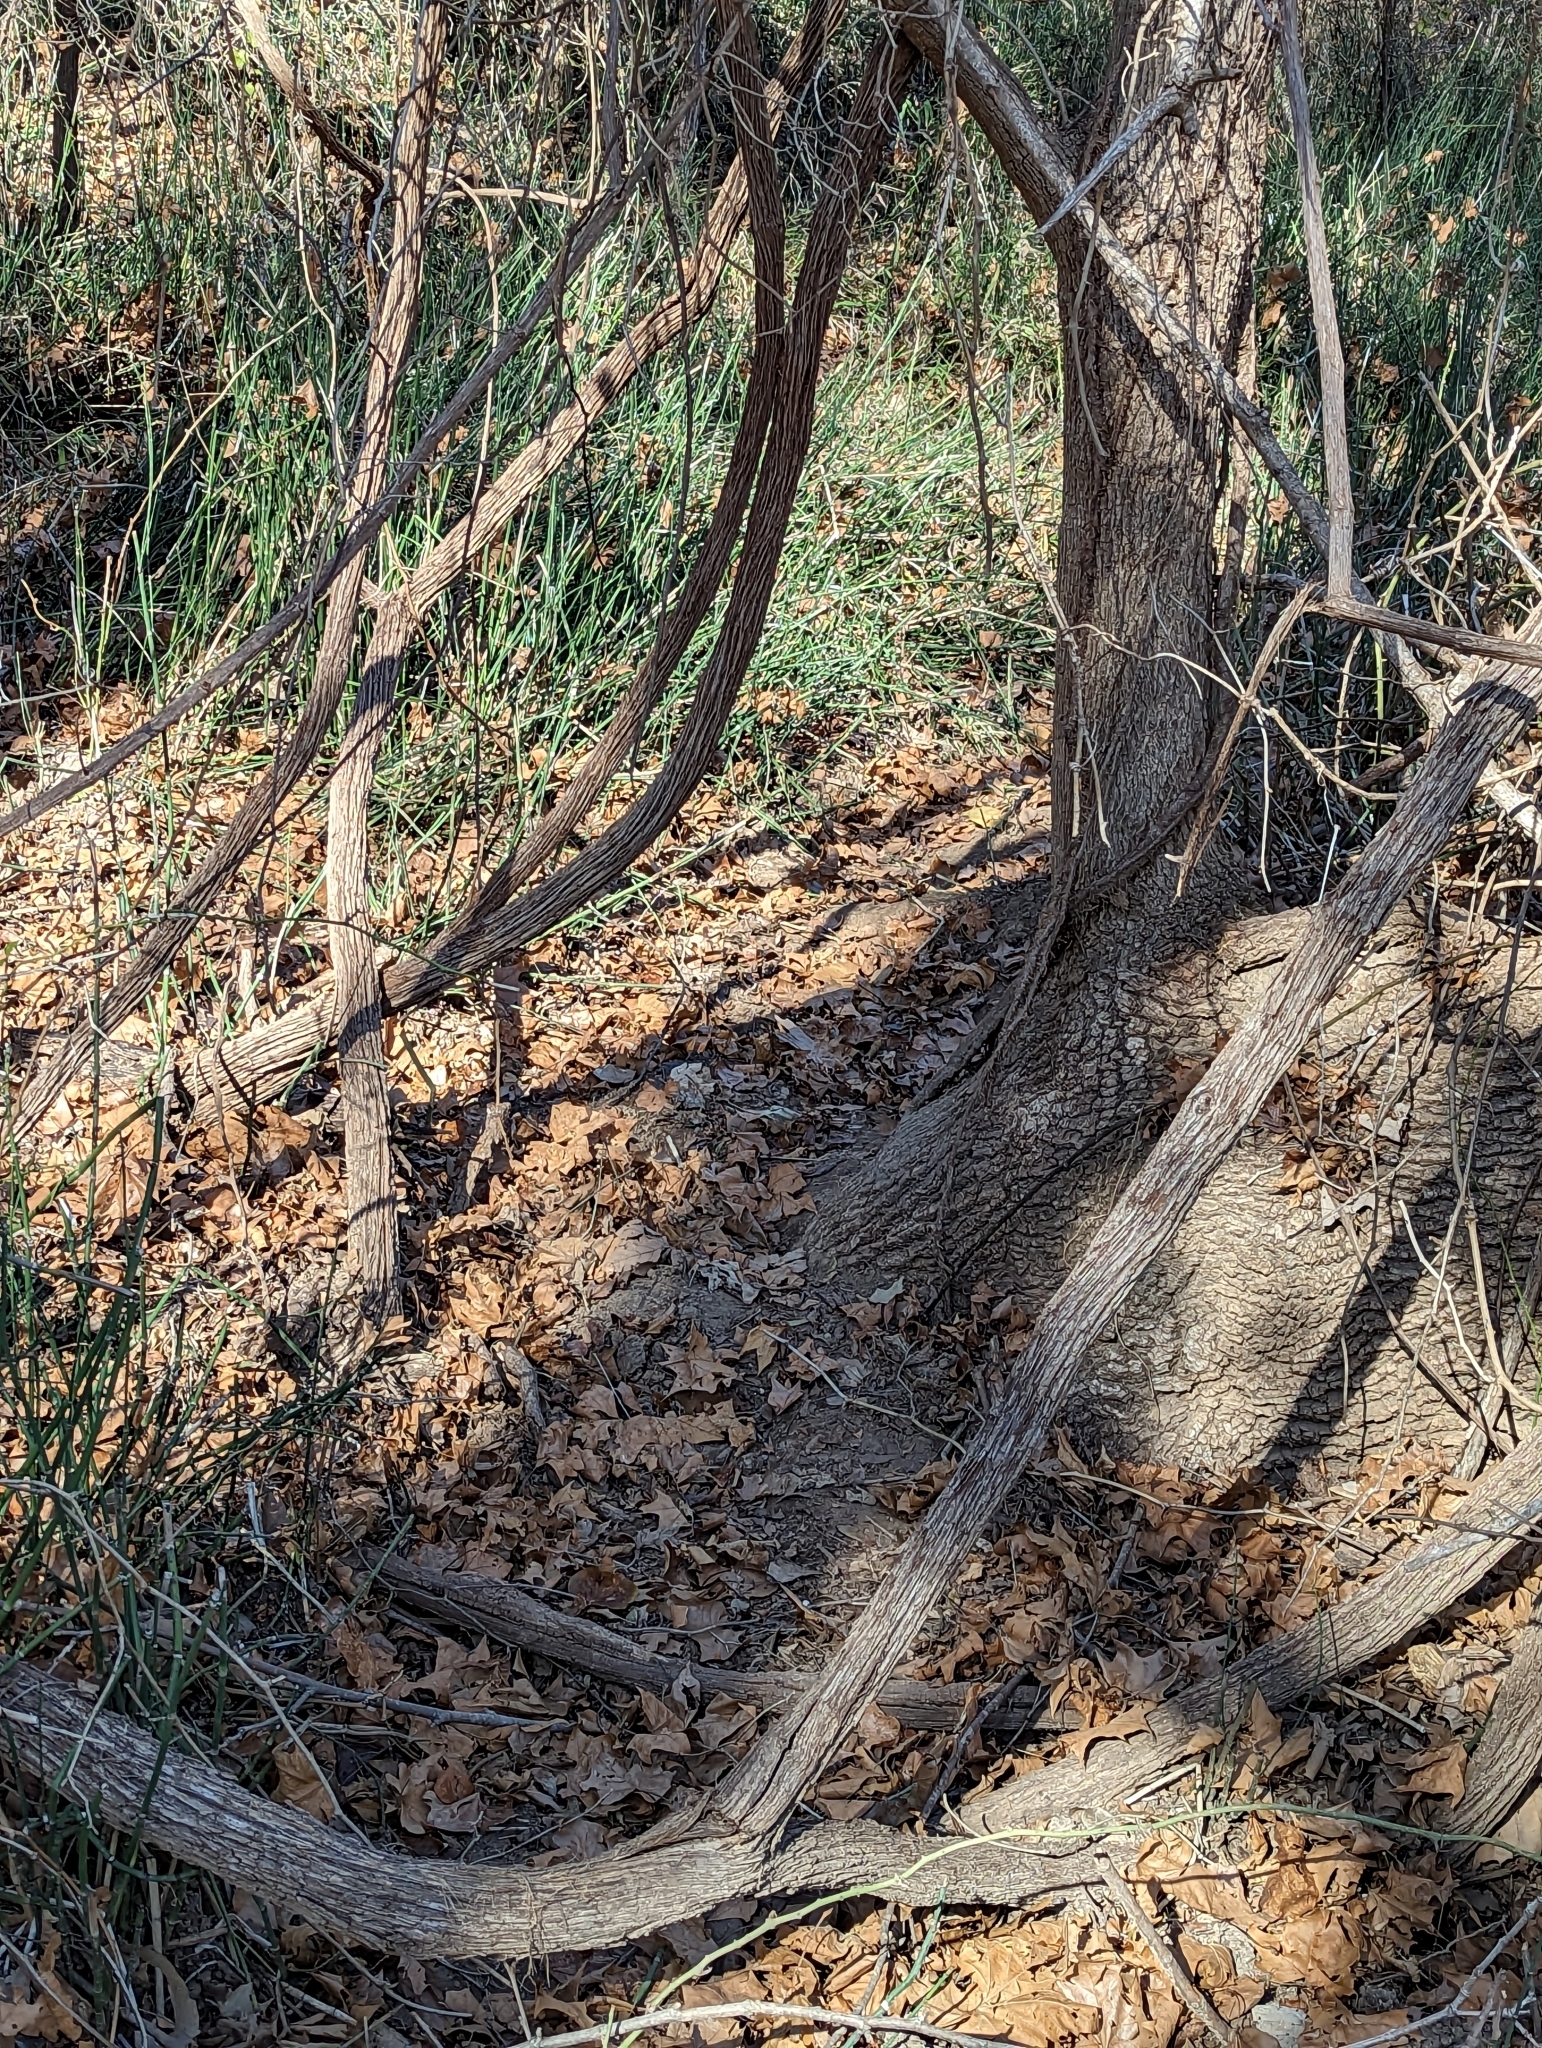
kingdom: Plantae
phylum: Tracheophyta
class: Magnoliopsida
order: Vitales
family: Vitaceae
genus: Vitis
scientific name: Vitis mustangensis
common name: Mustang grape
